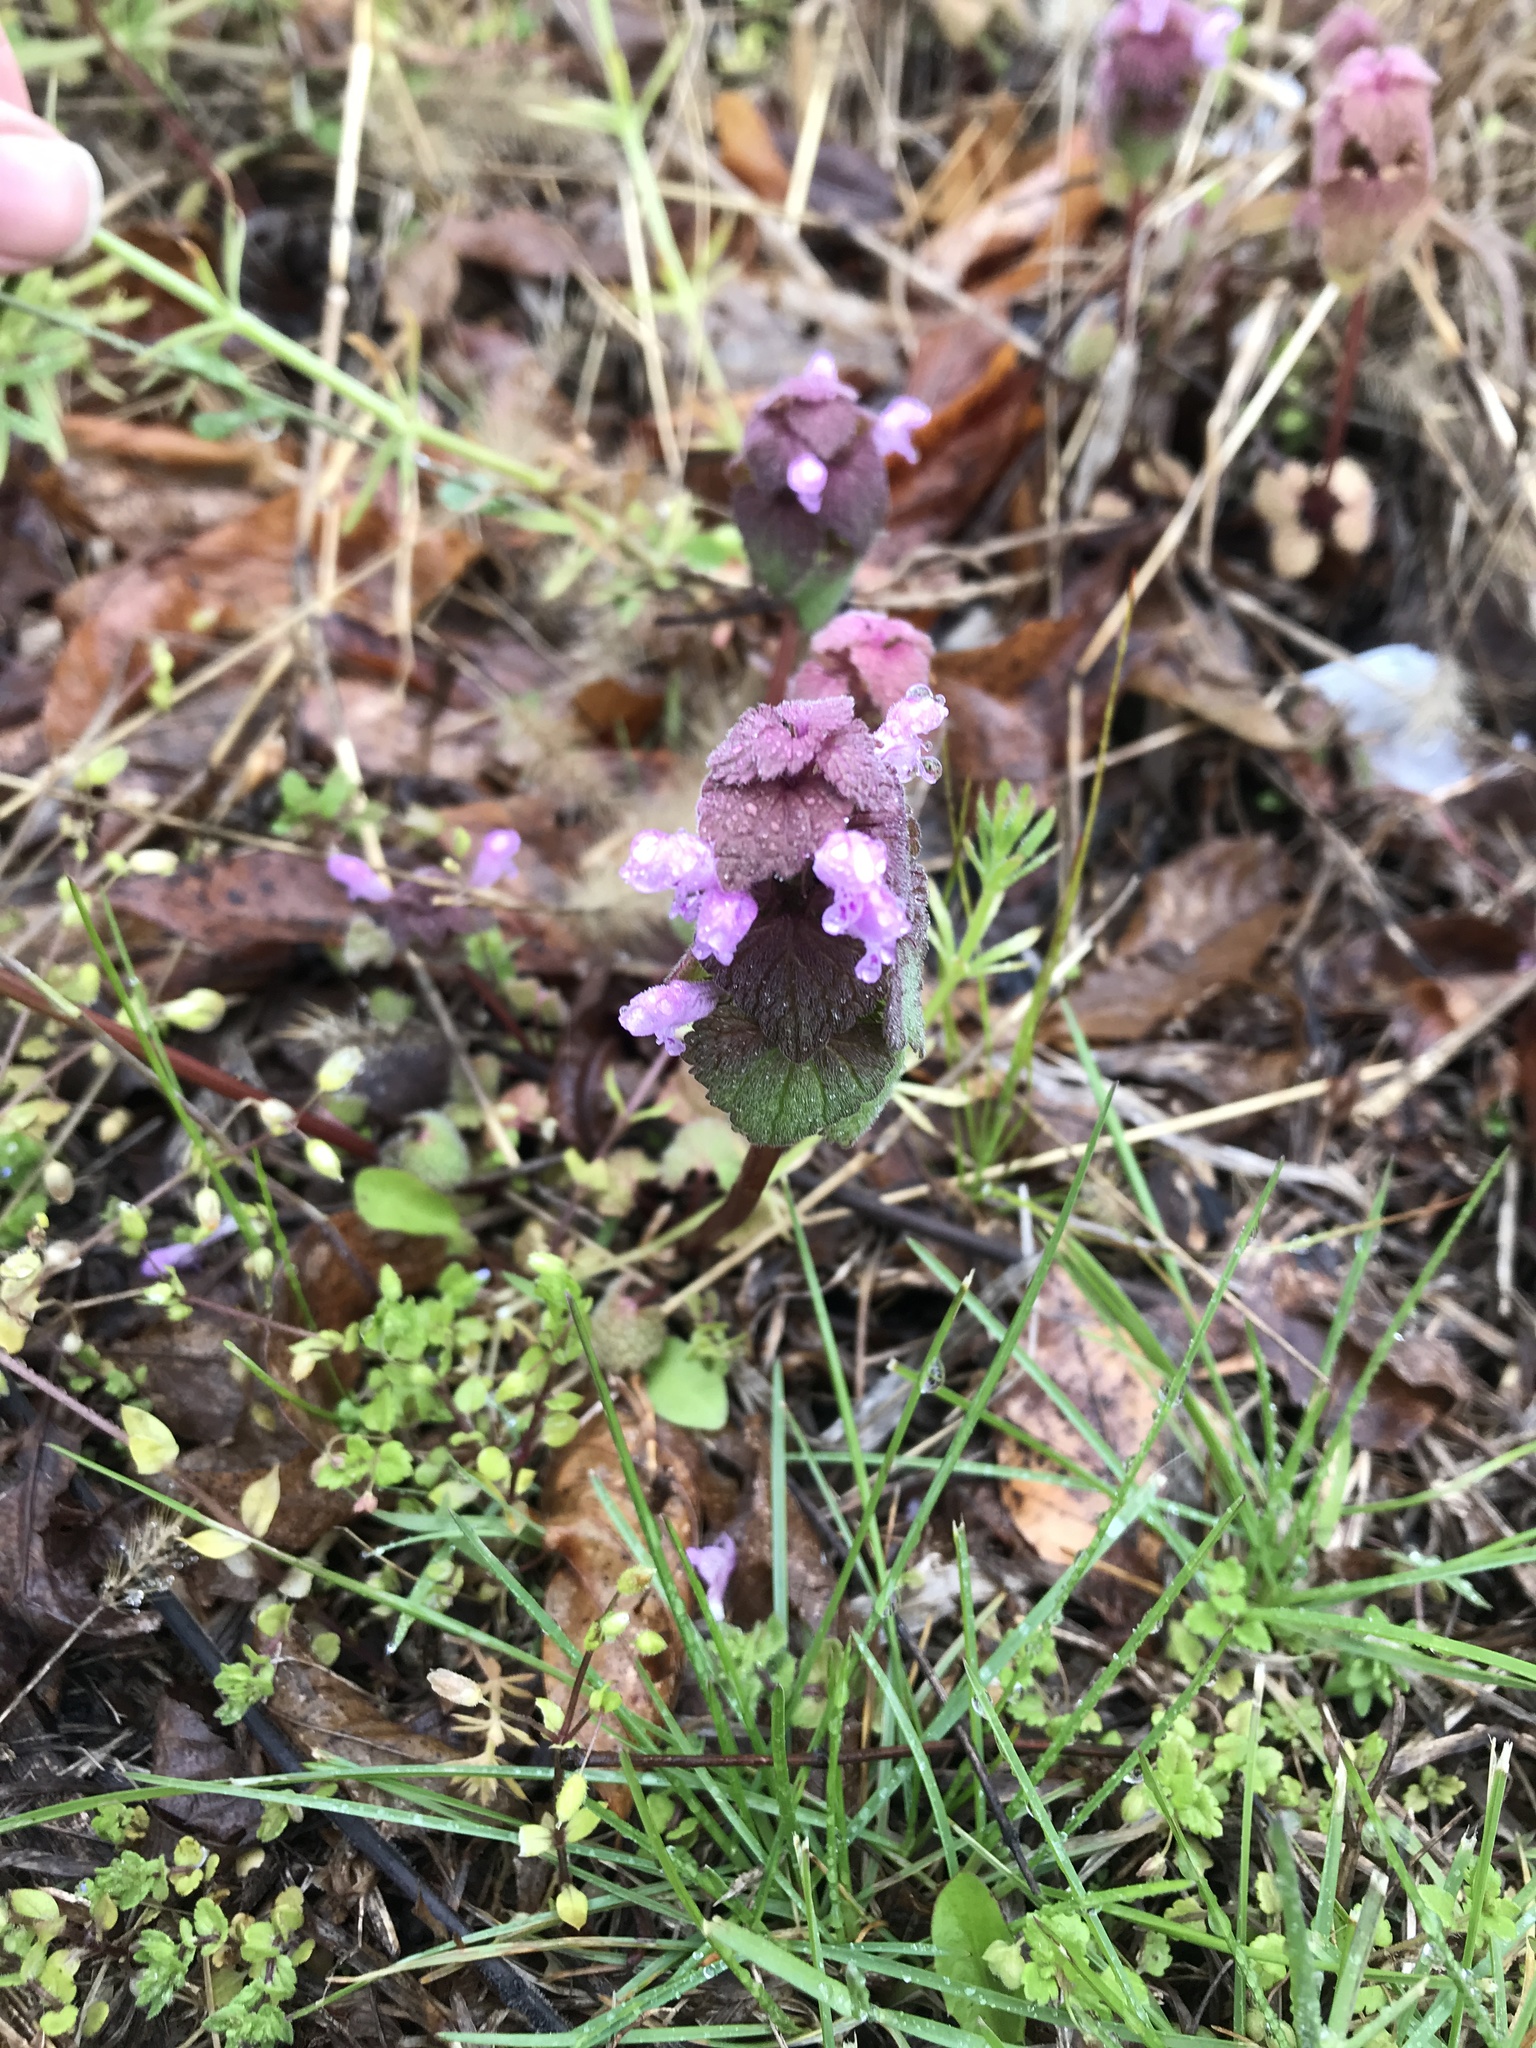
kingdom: Plantae
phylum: Tracheophyta
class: Magnoliopsida
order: Lamiales
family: Lamiaceae
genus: Lamium
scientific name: Lamium purpureum
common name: Red dead-nettle
